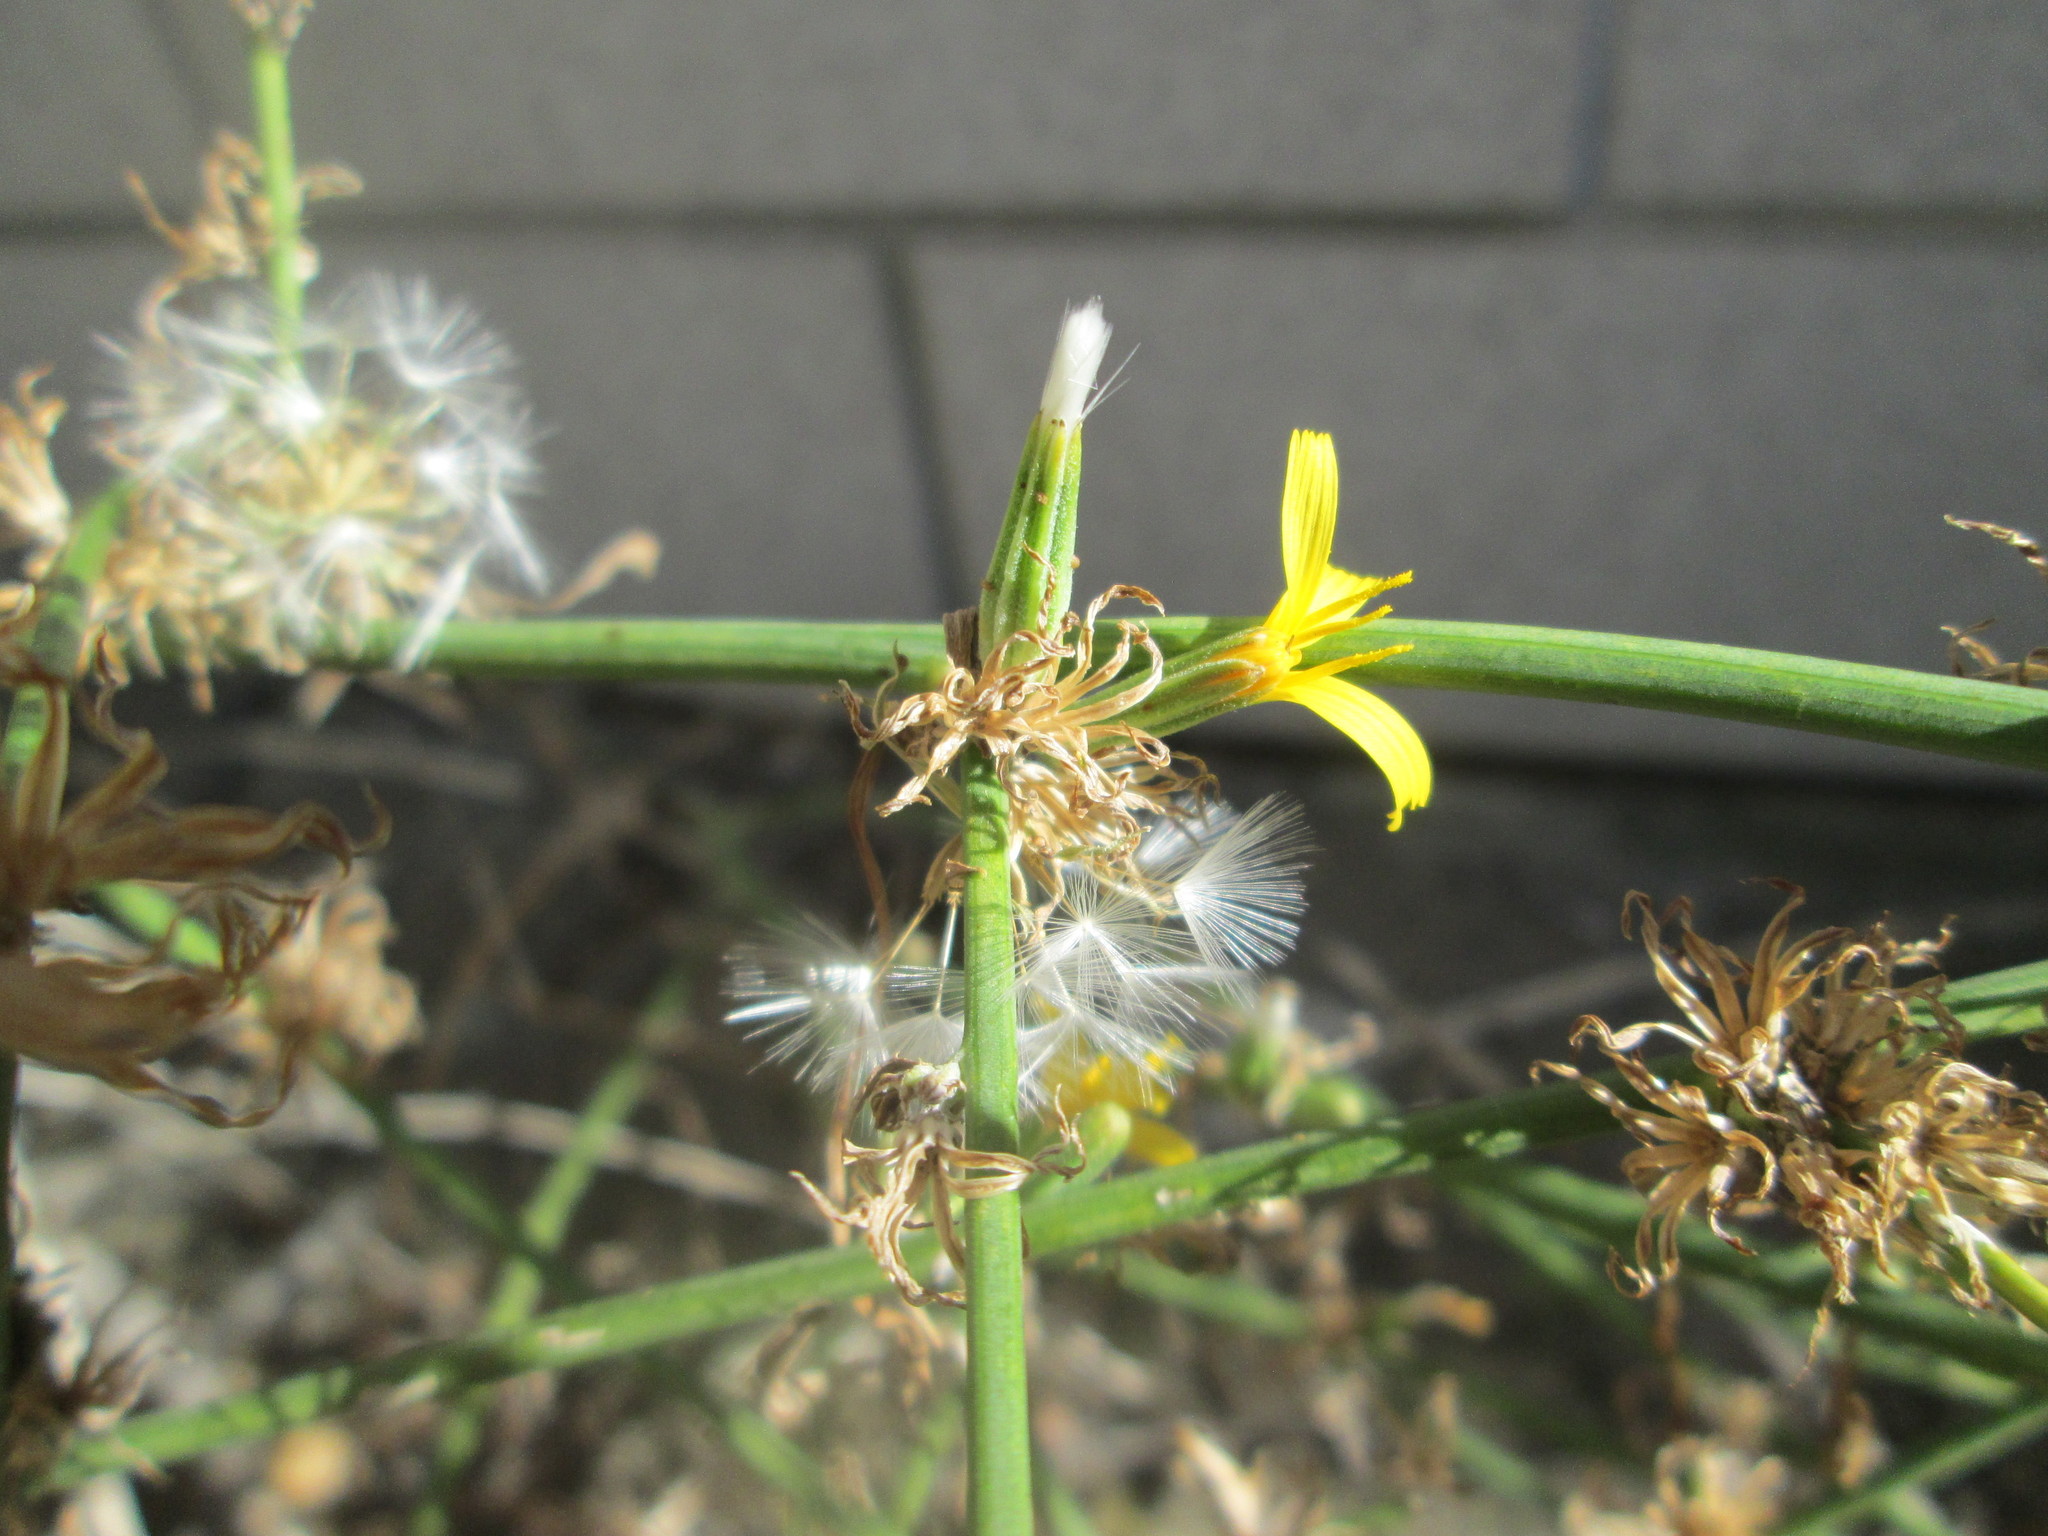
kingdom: Plantae
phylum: Tracheophyta
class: Magnoliopsida
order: Asterales
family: Asteraceae
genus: Chondrilla
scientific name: Chondrilla juncea
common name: Skeleton weed
